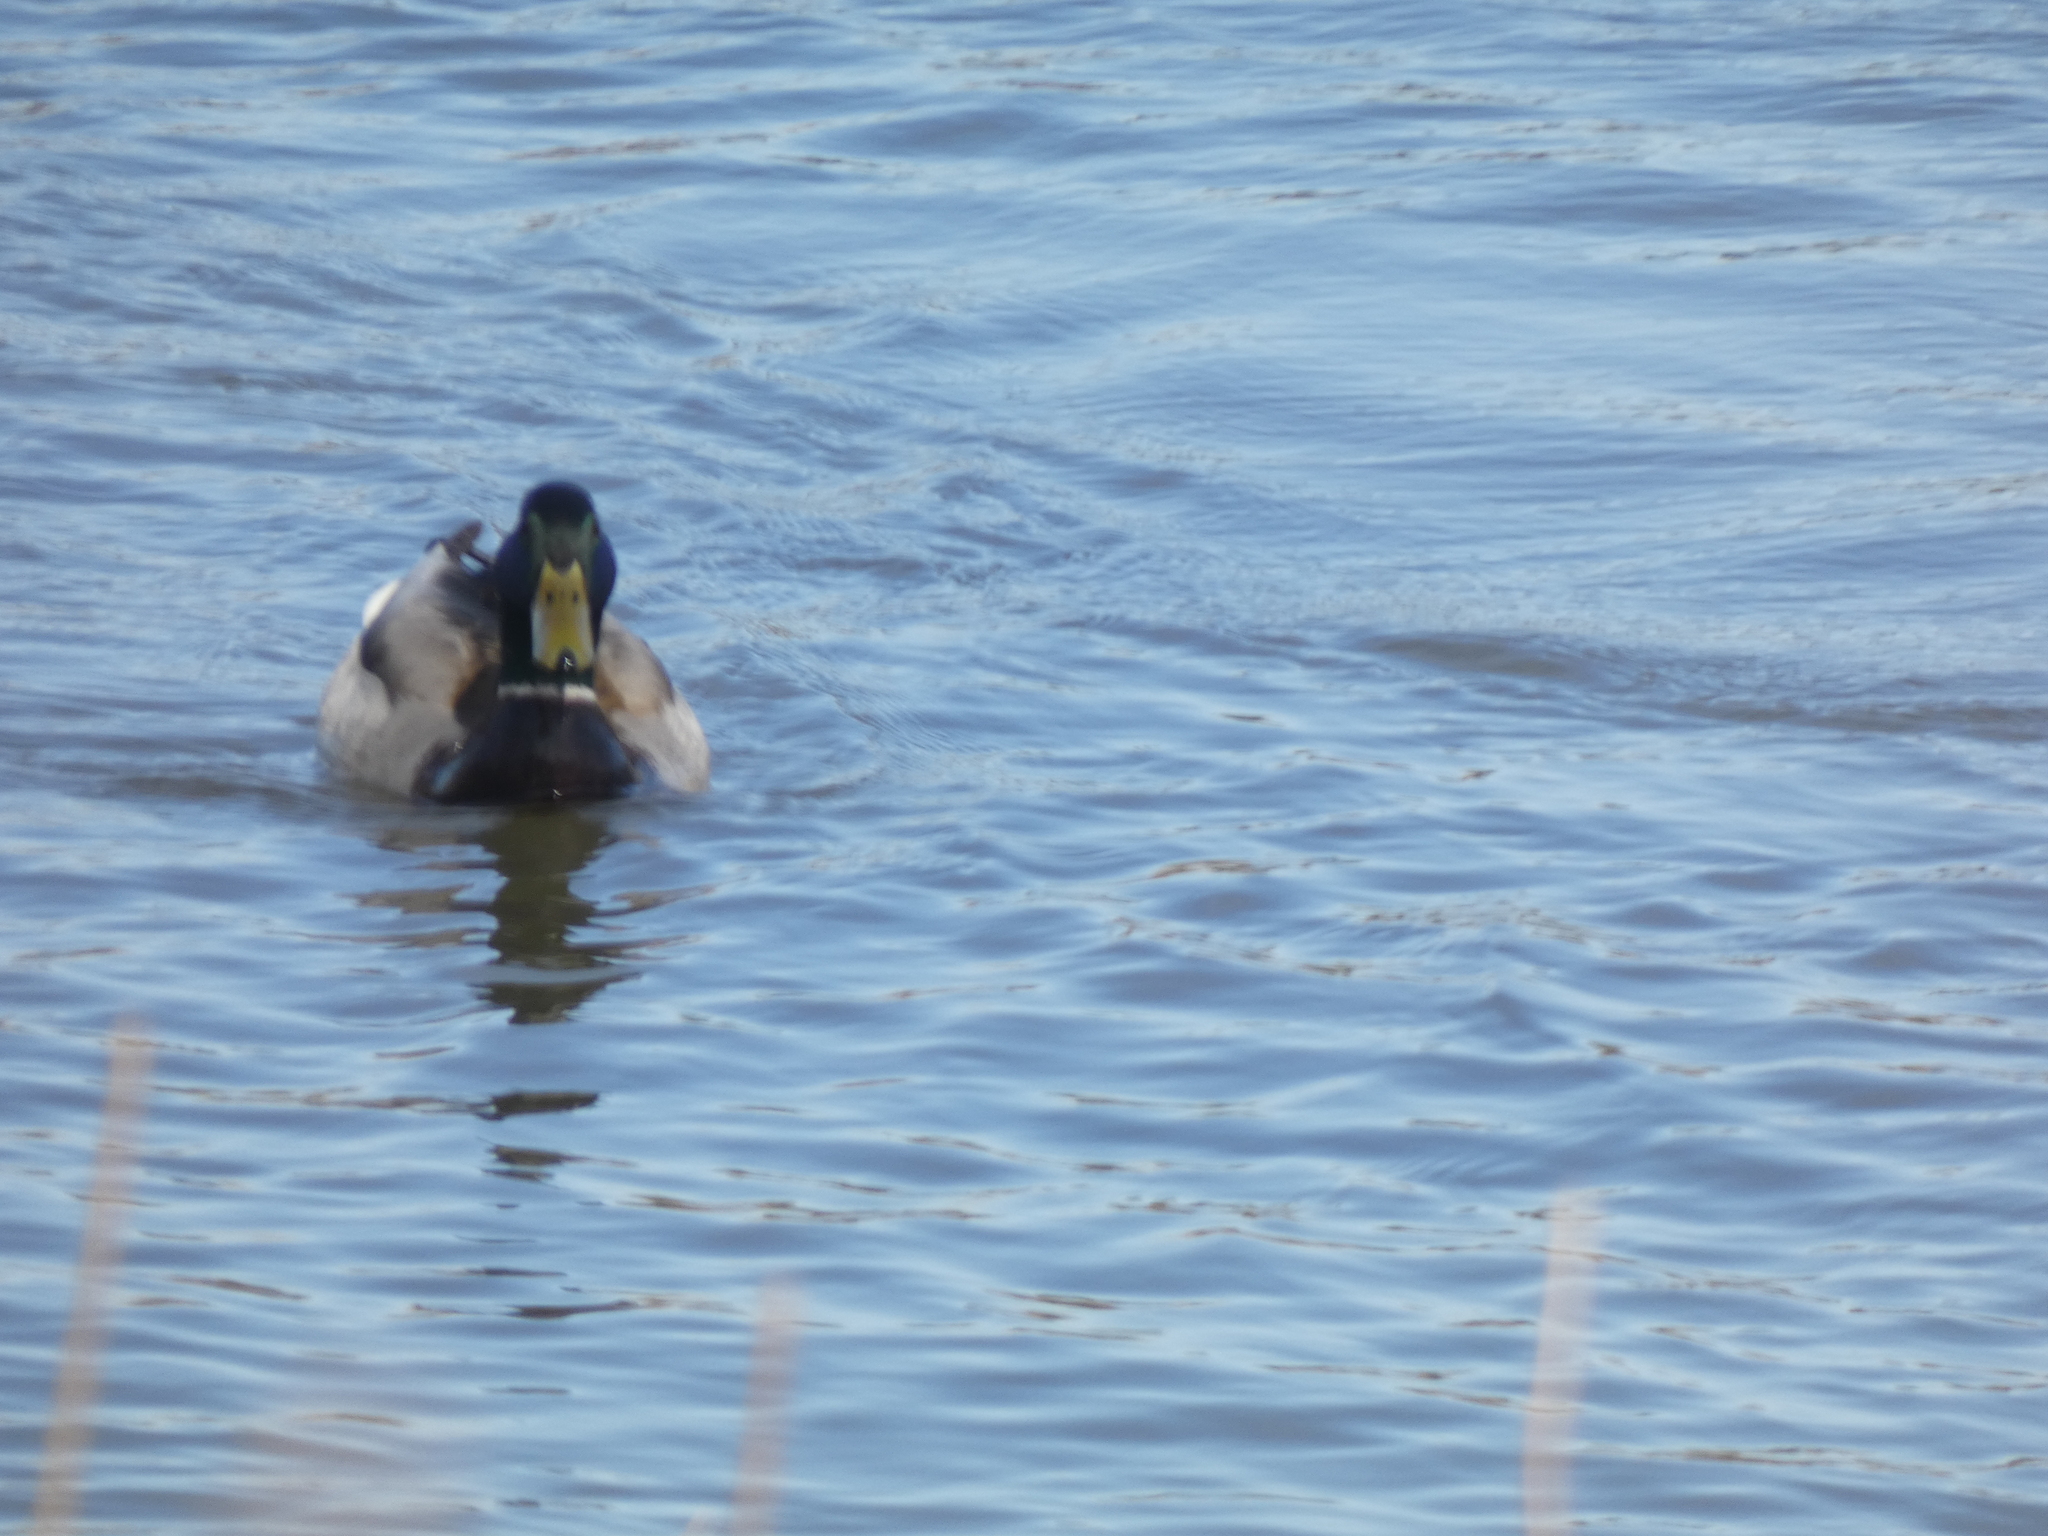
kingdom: Animalia
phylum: Chordata
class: Aves
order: Anseriformes
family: Anatidae
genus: Anas
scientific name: Anas platyrhynchos
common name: Mallard
